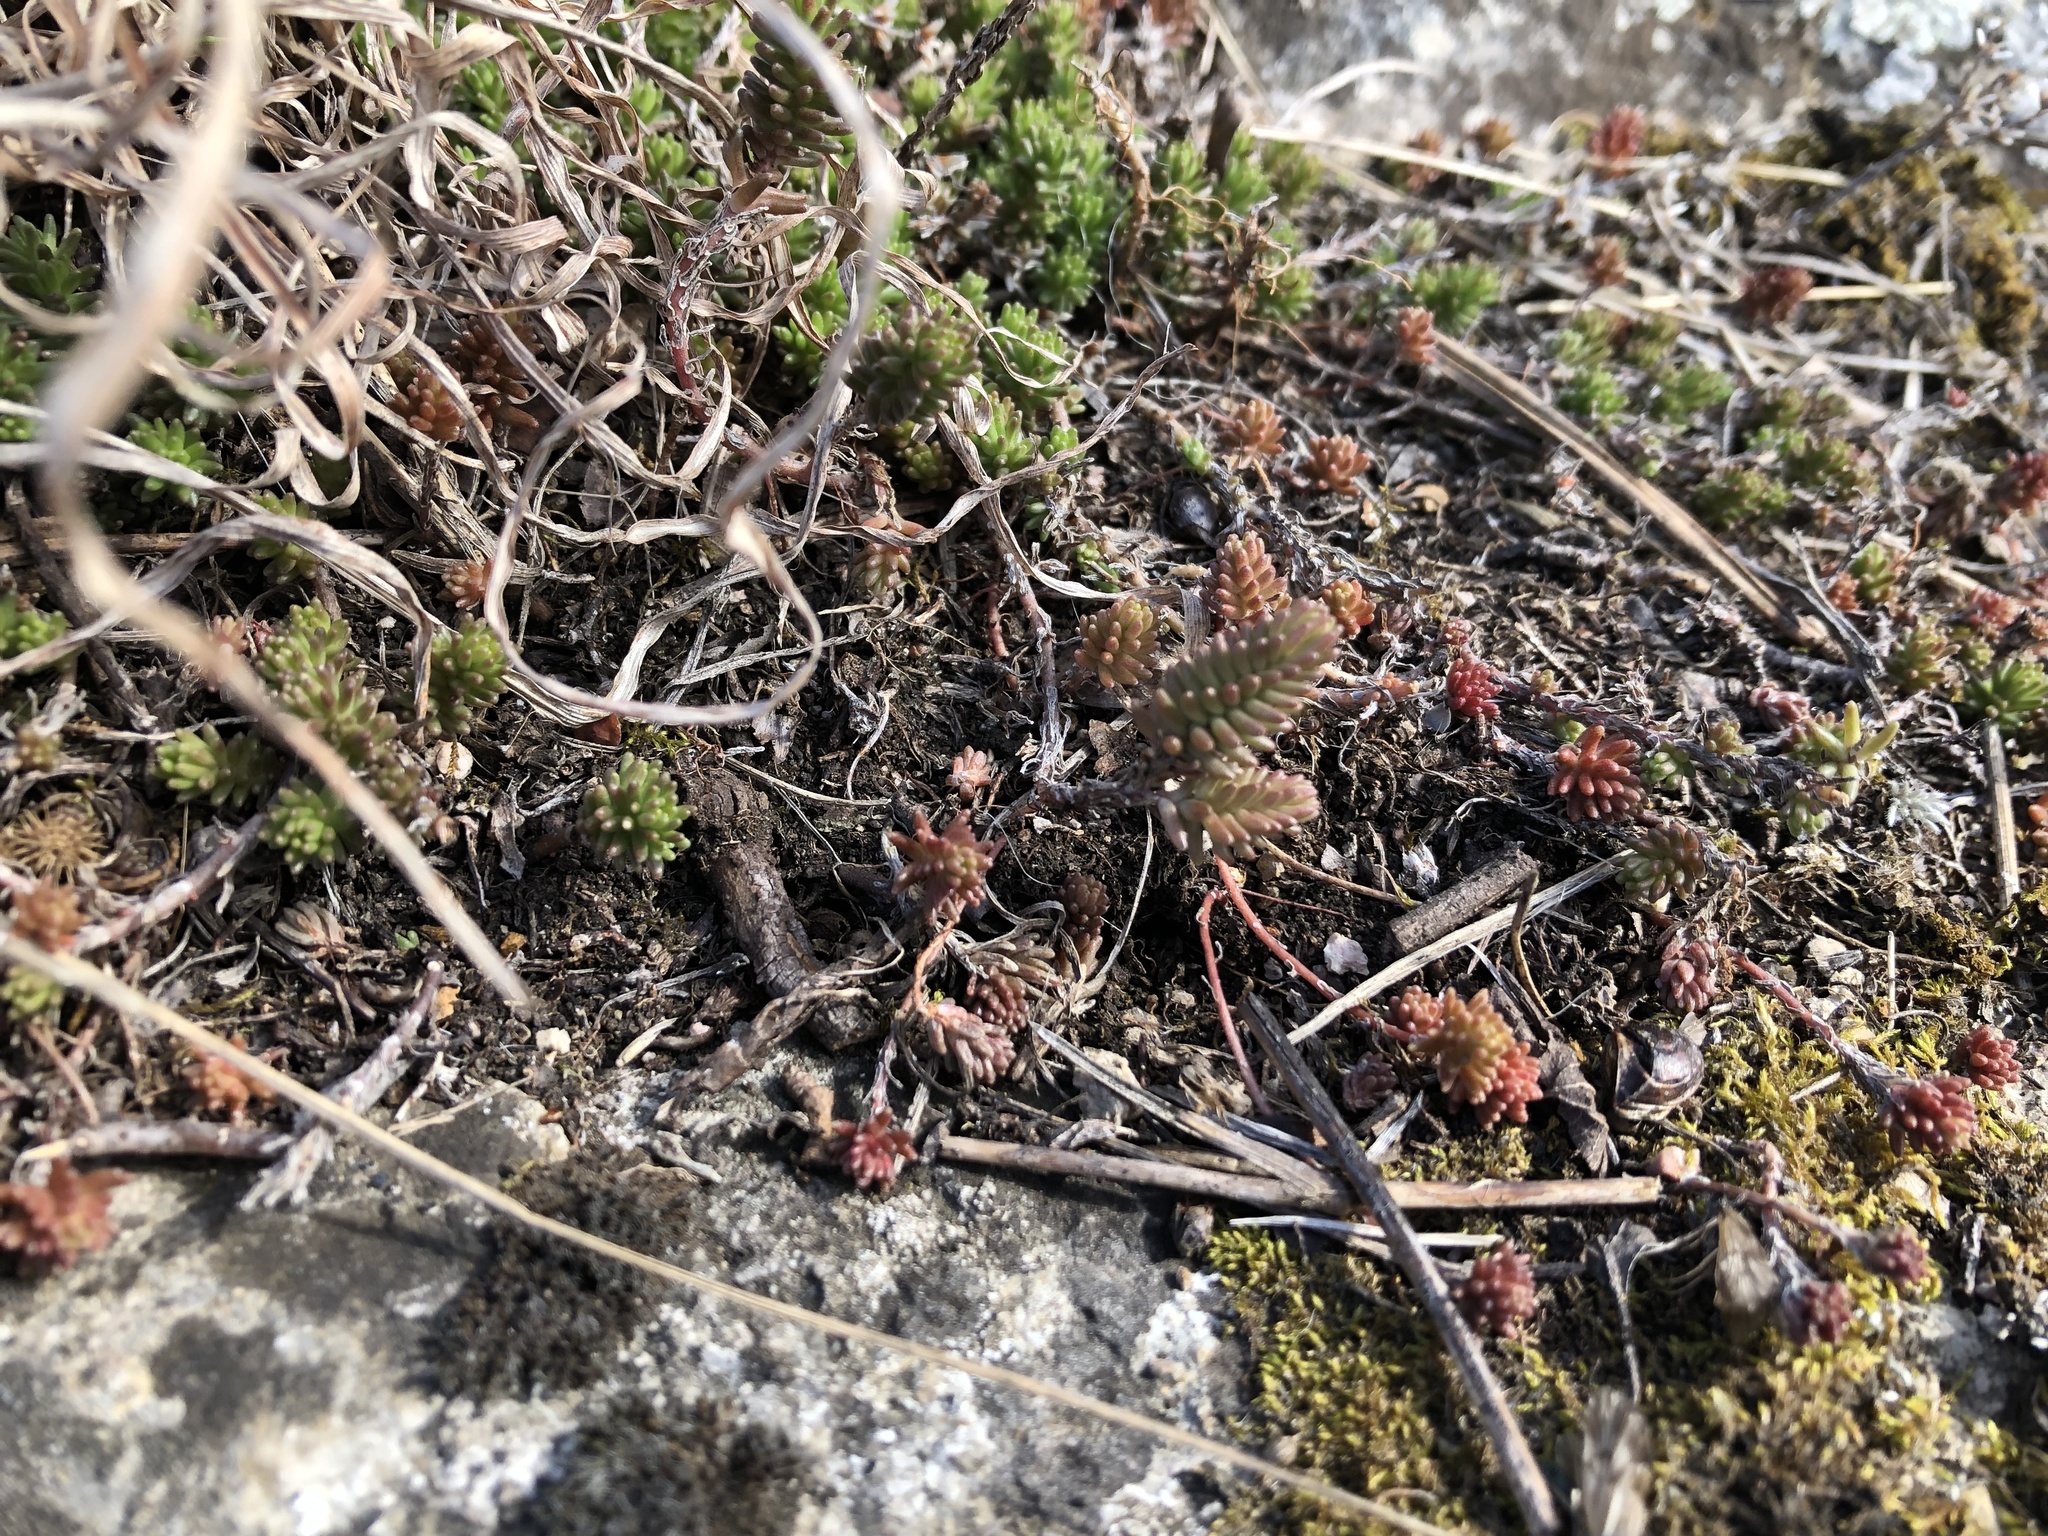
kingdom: Plantae
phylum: Tracheophyta
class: Magnoliopsida
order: Saxifragales
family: Crassulaceae
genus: Sedum
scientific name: Sedum sexangulare
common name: Tasteless stonecrop
